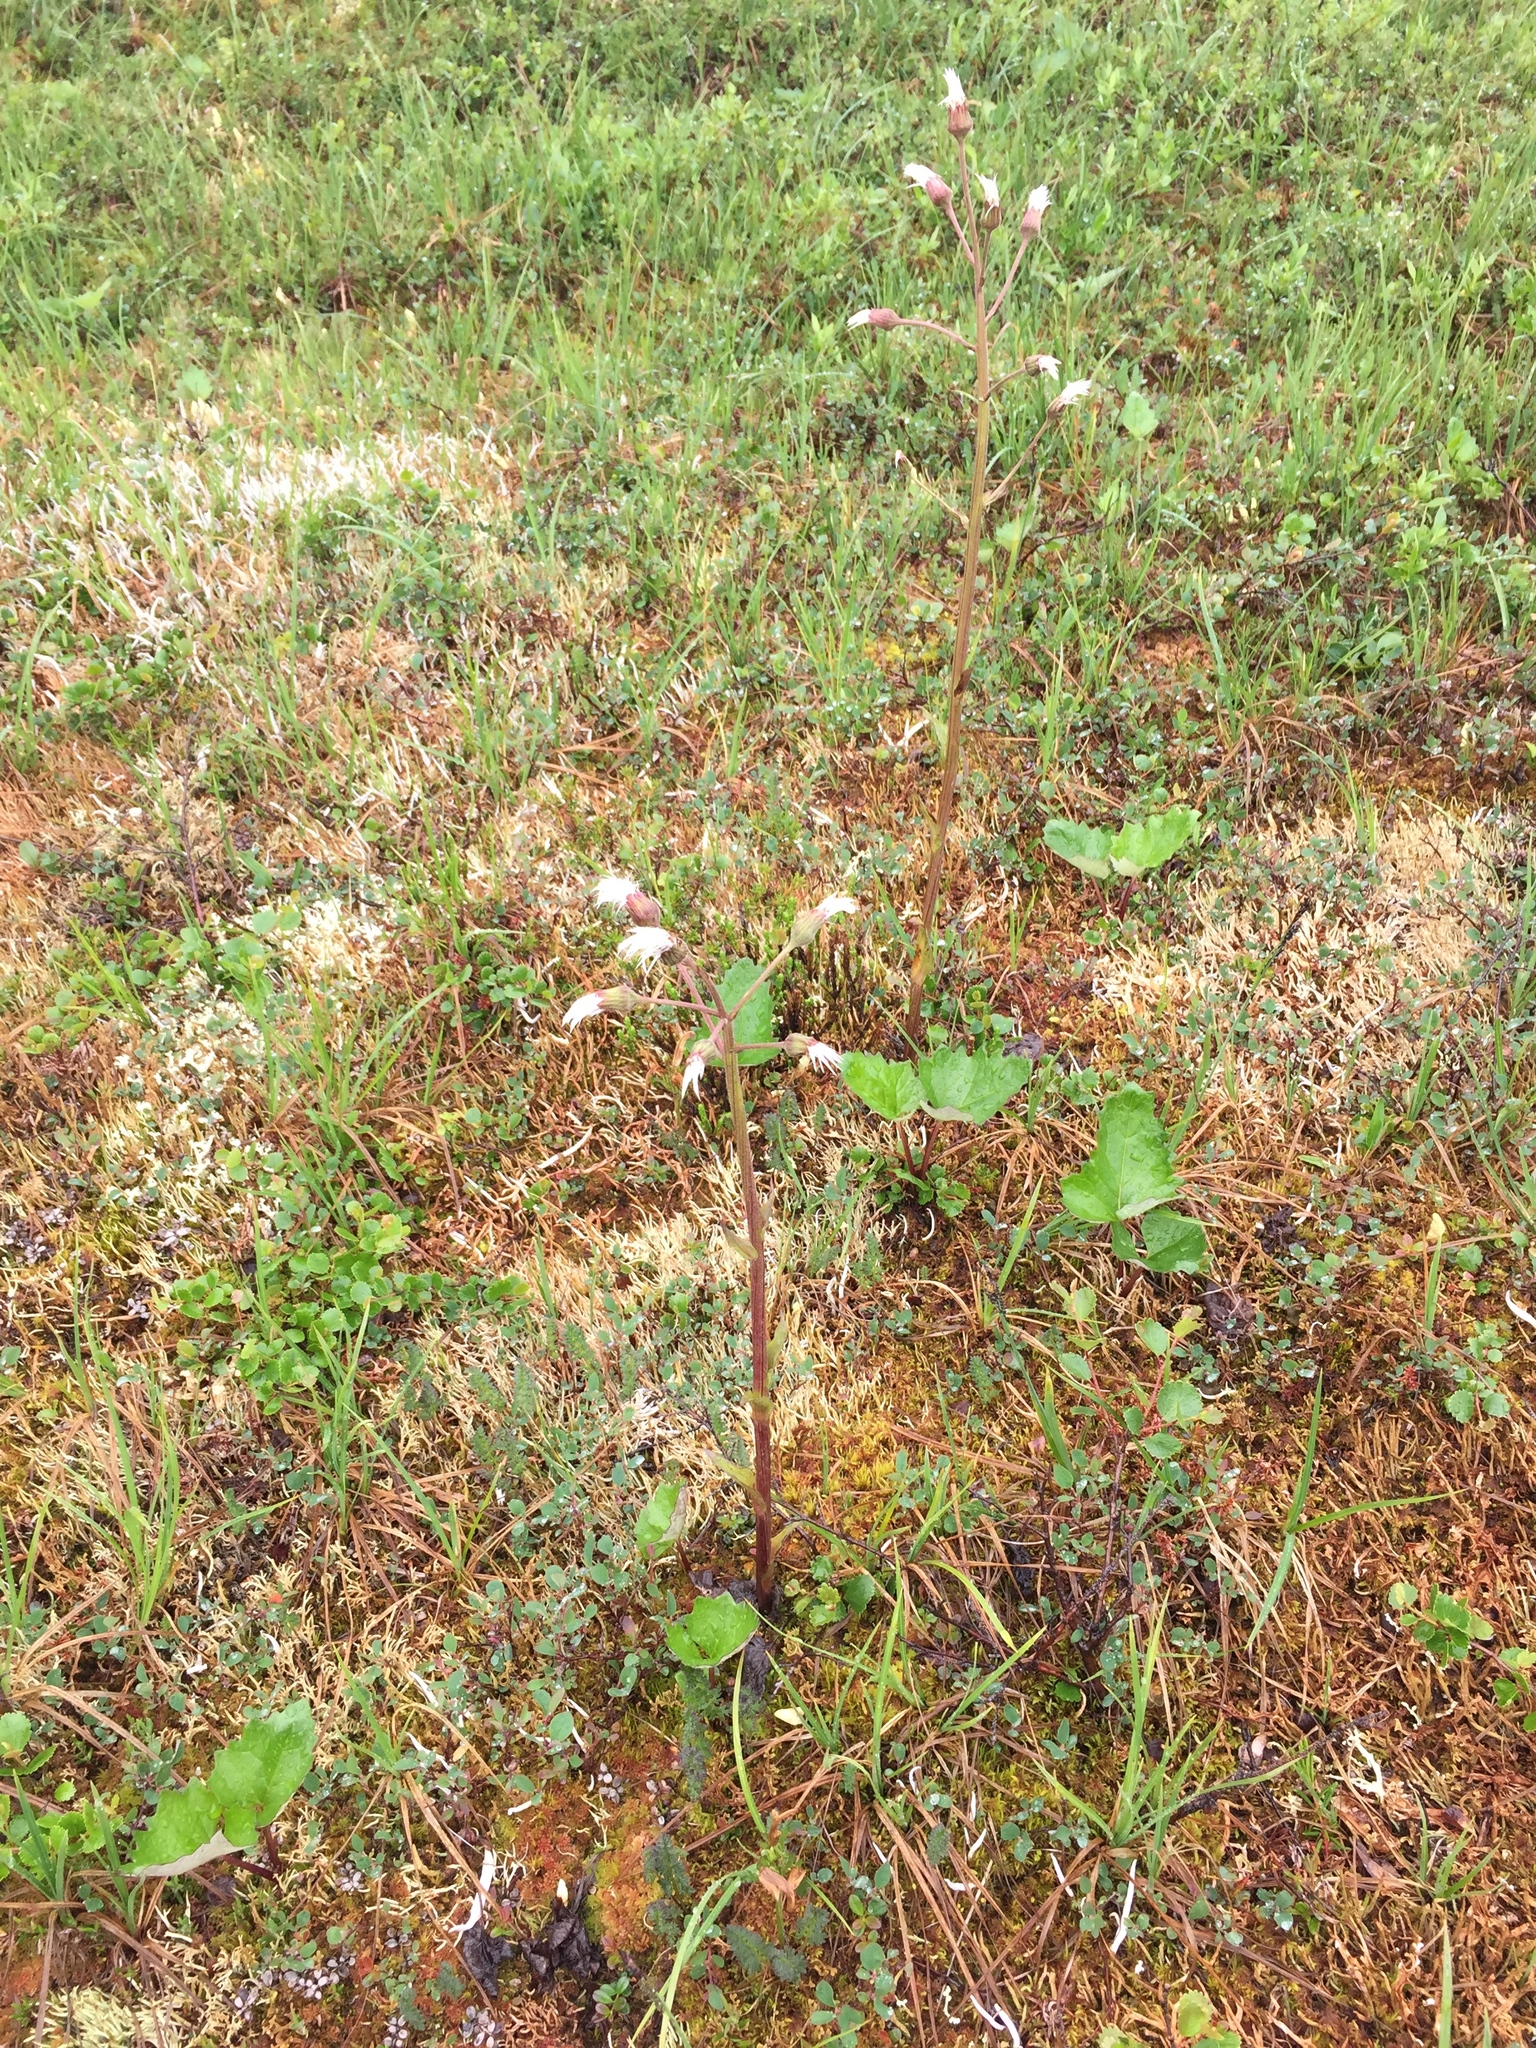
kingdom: Plantae
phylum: Tracheophyta
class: Magnoliopsida
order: Asterales
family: Asteraceae
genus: Petasites
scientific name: Petasites frigidus
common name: Arctic butterbur
